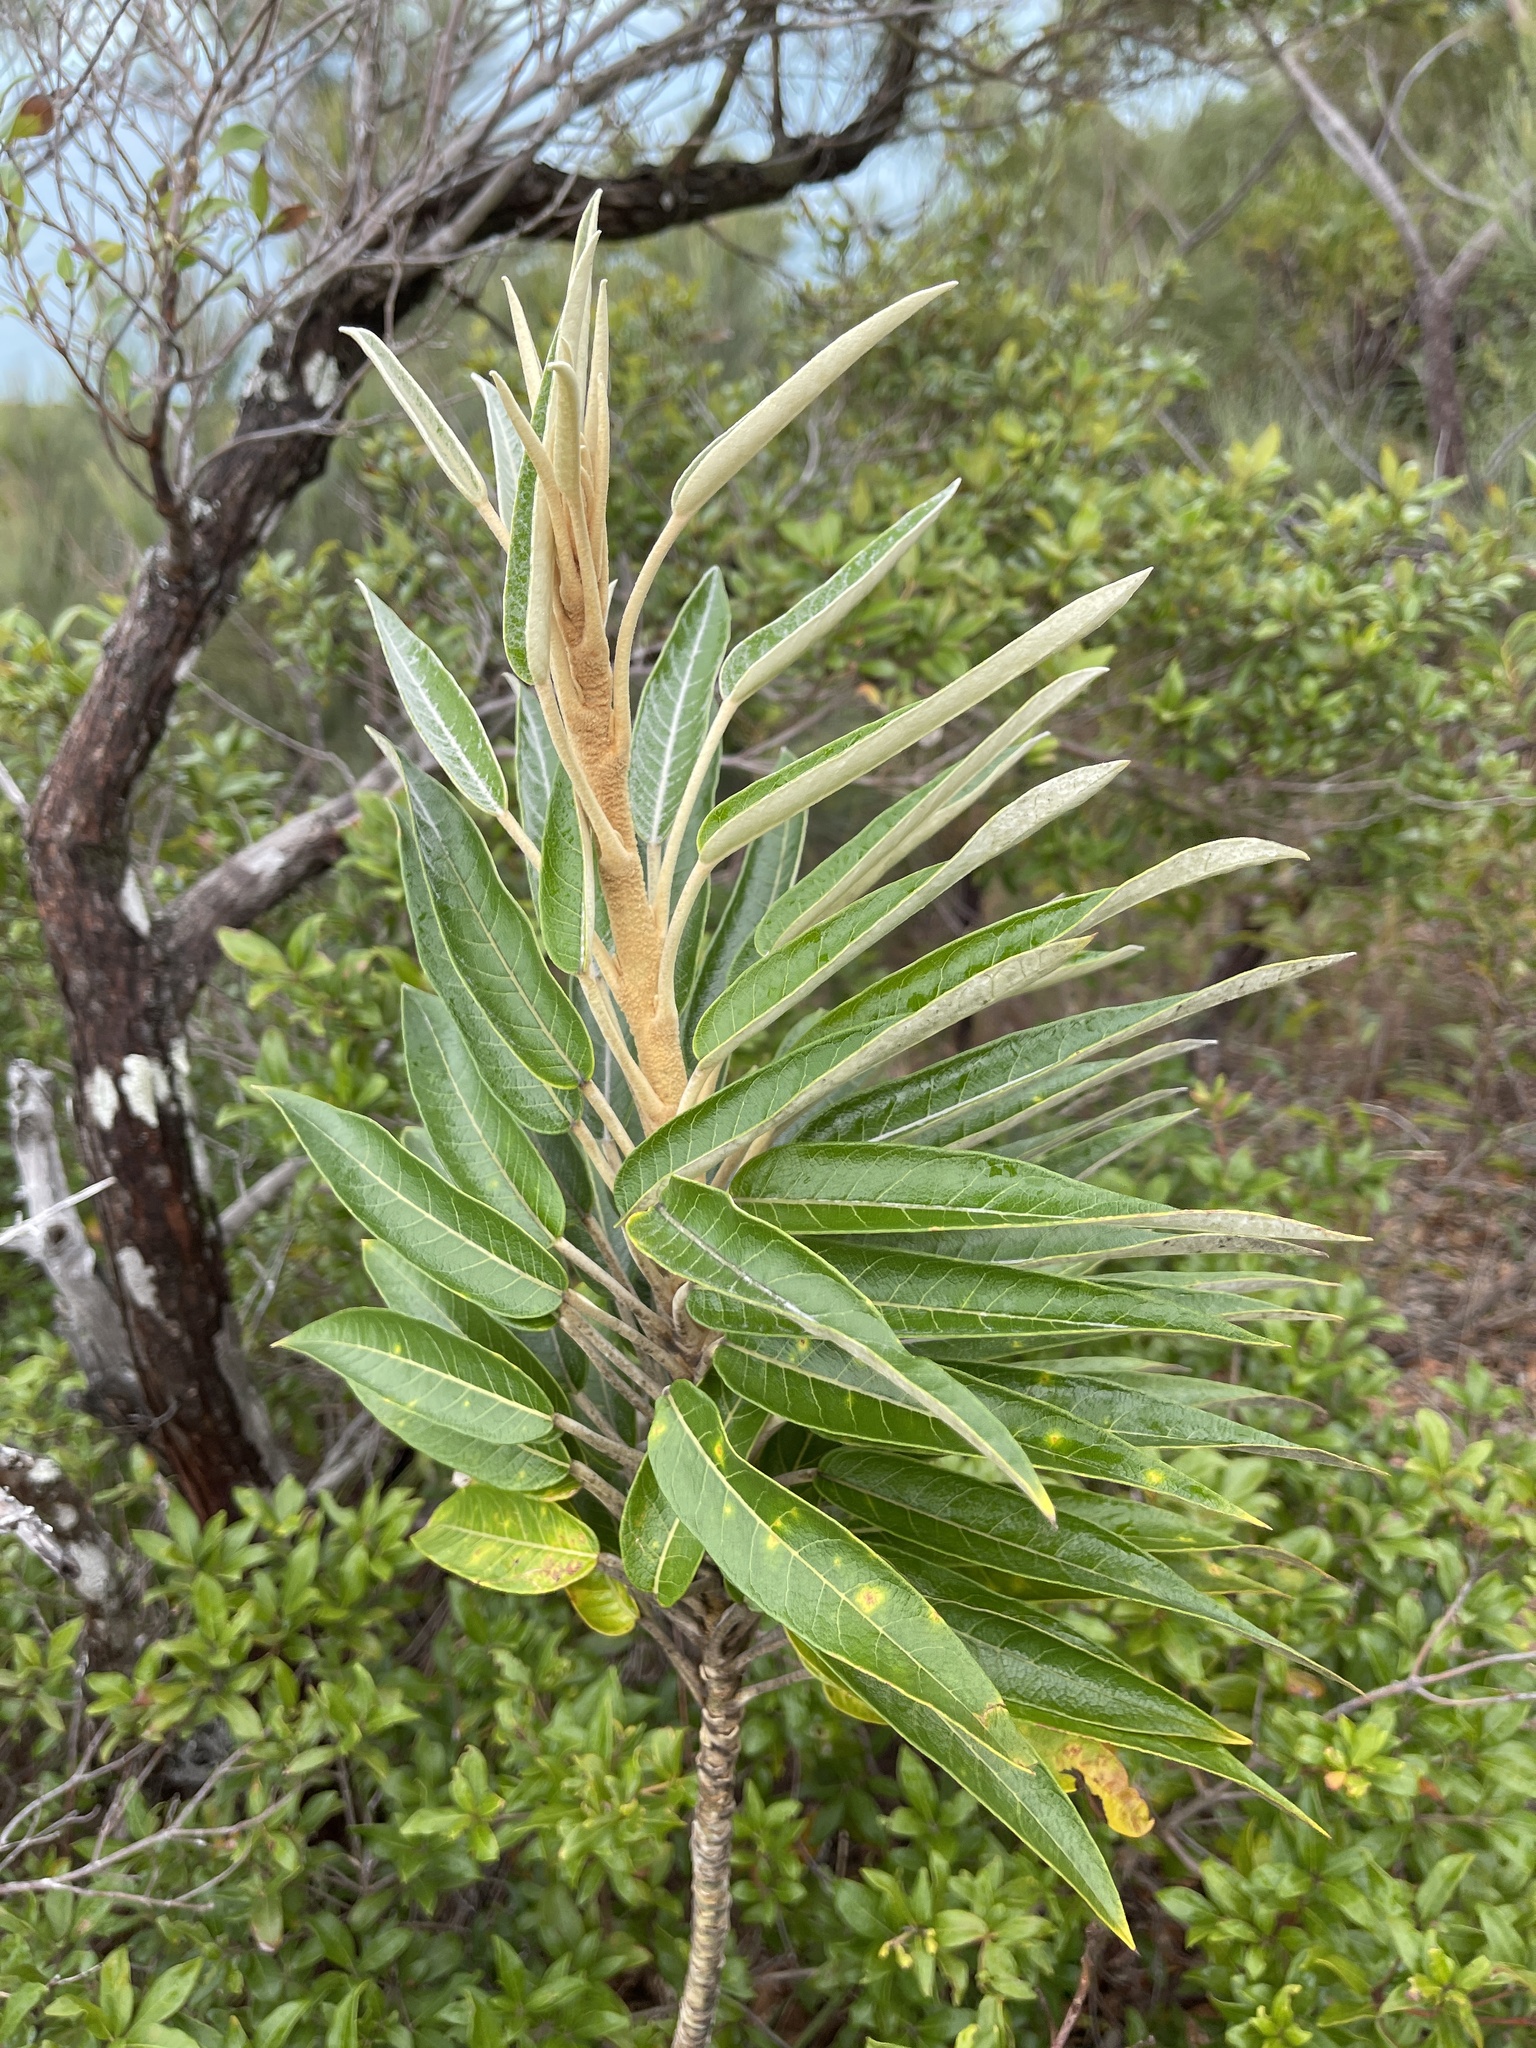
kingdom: Plantae
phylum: Tracheophyta
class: Magnoliopsida
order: Apiales
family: Araliaceae
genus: Astrotricha
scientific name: Astrotricha pterocarpa
